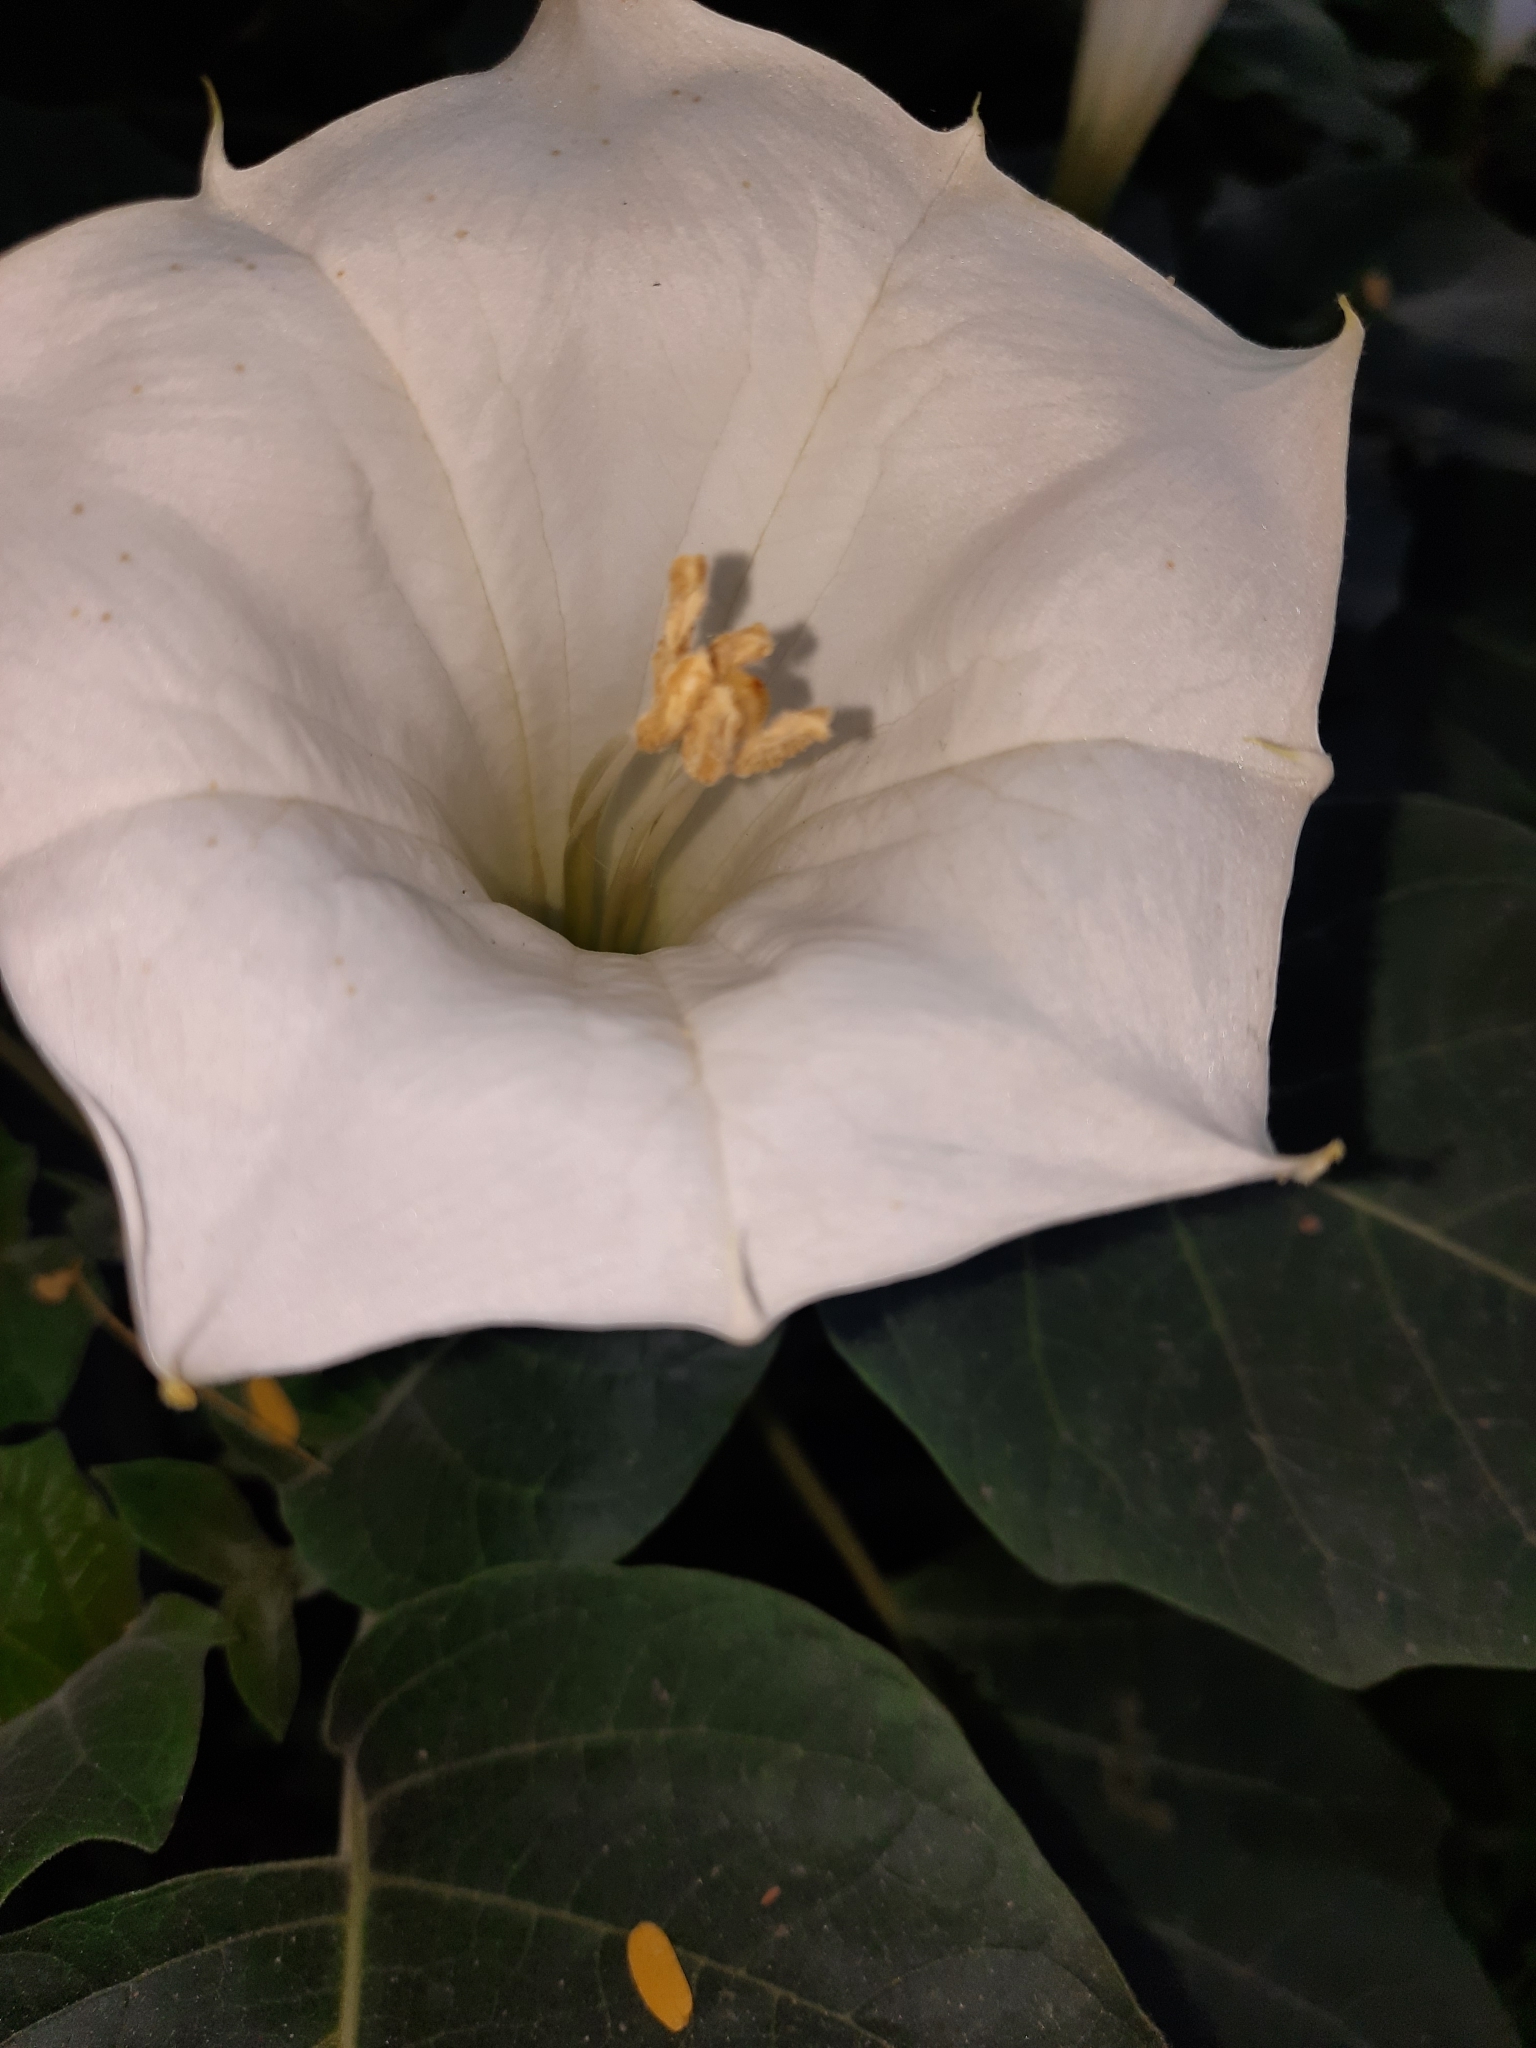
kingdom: Plantae
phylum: Tracheophyta
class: Magnoliopsida
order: Solanales
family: Solanaceae
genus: Datura
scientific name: Datura innoxia
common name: Downy thorn-apple
